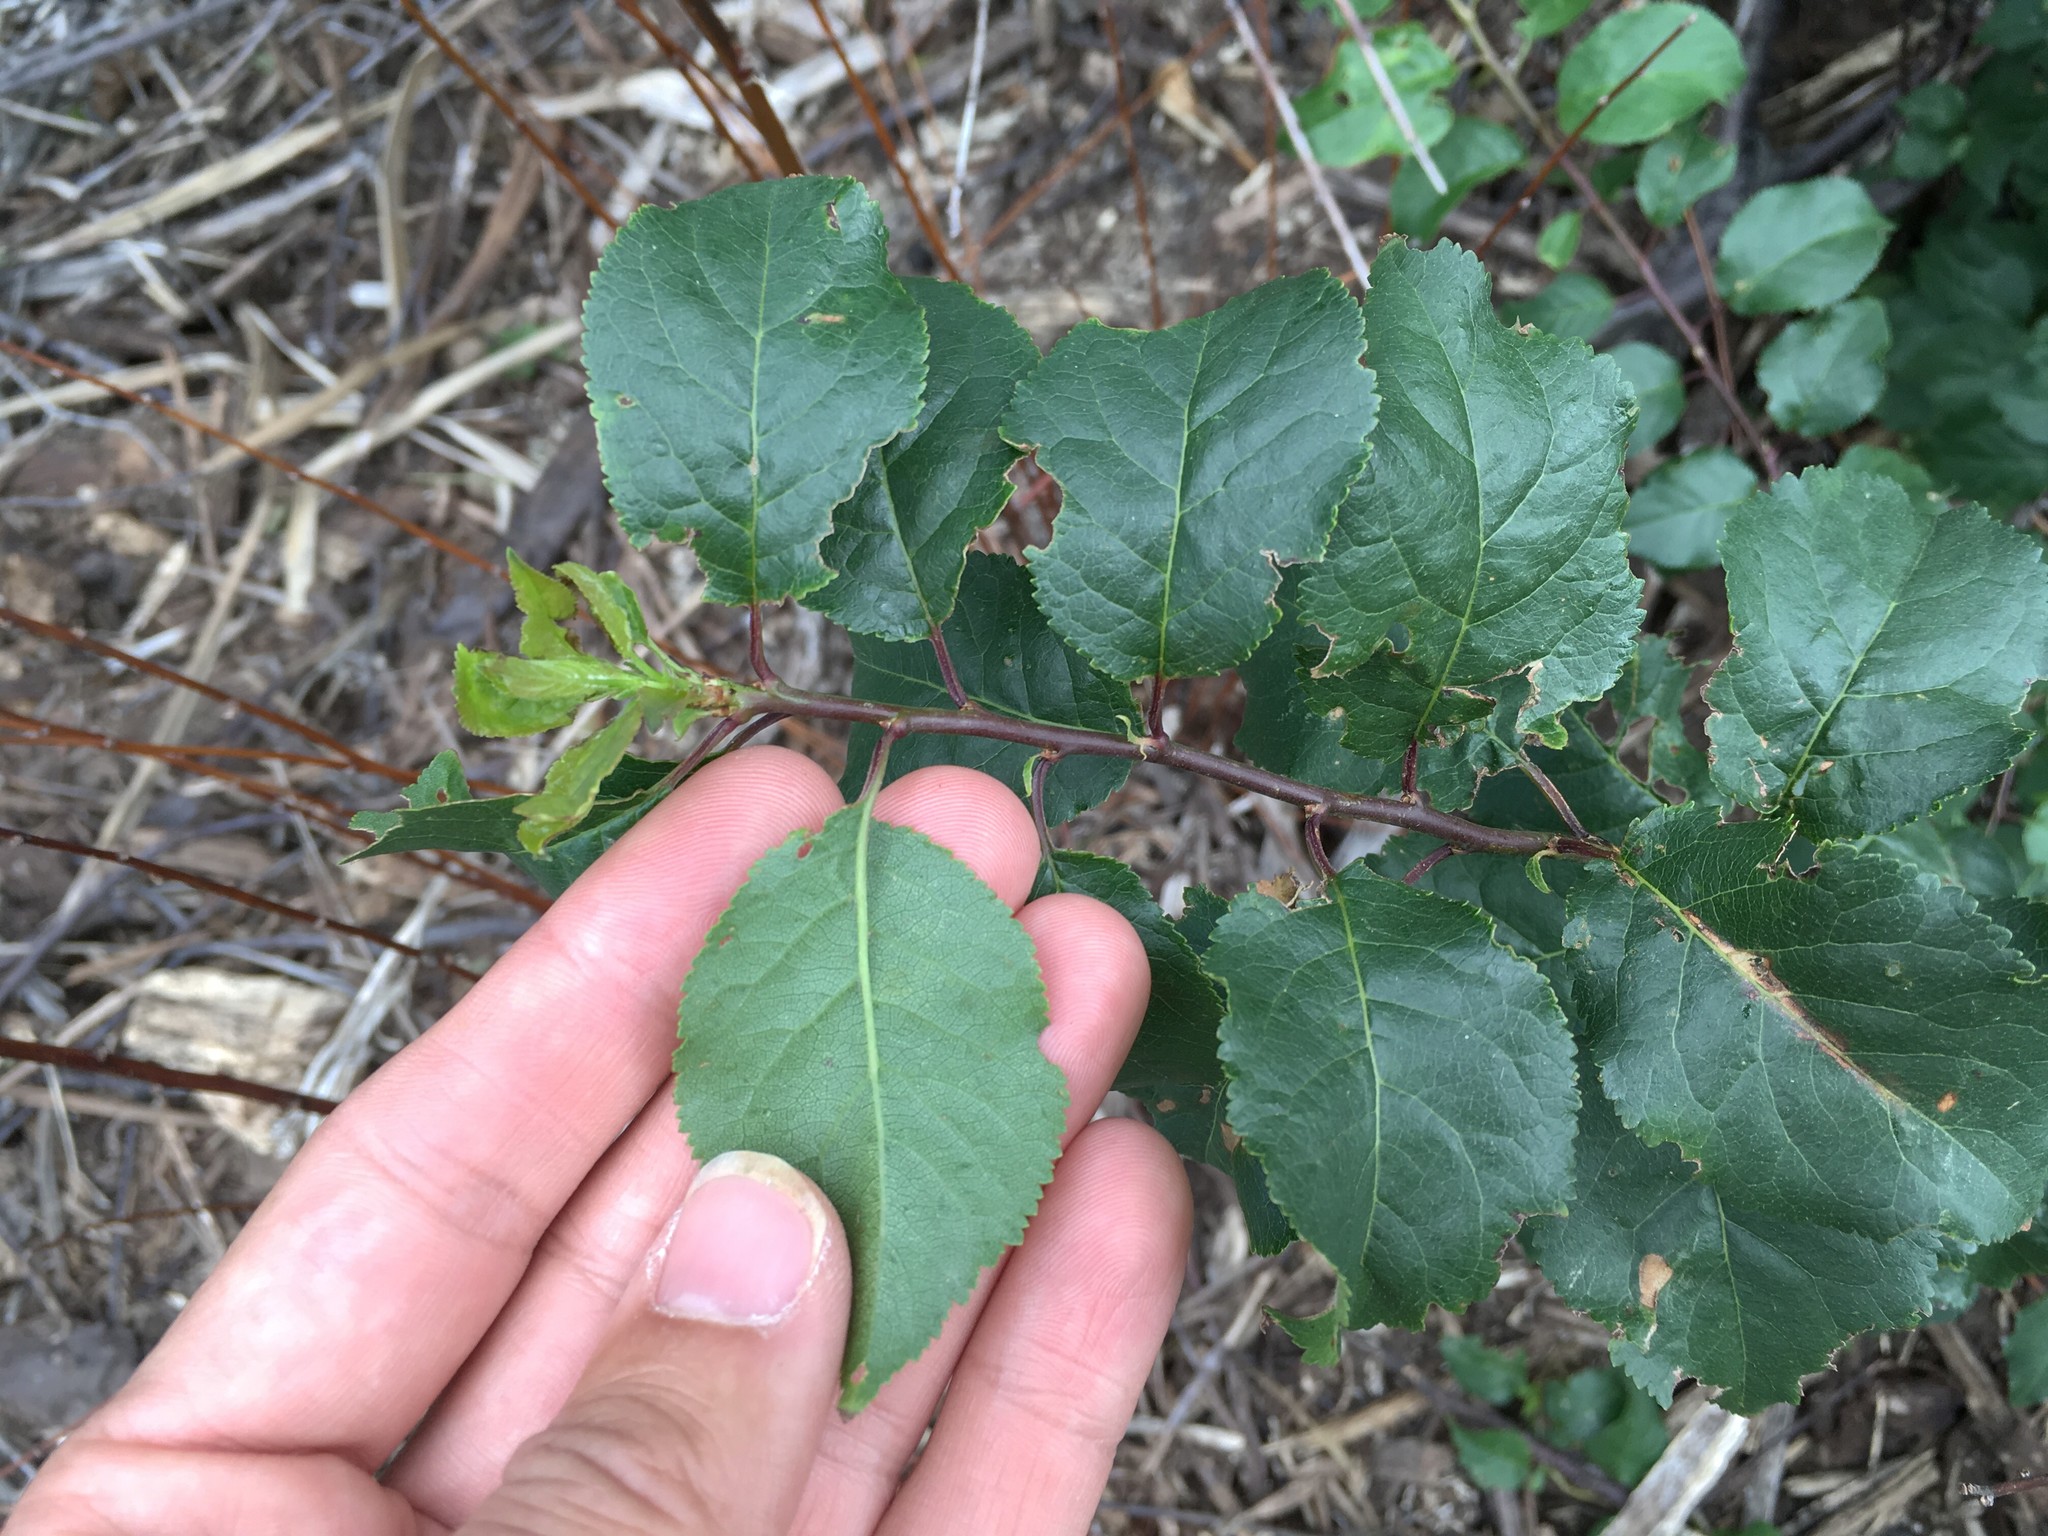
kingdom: Plantae
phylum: Tracheophyta
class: Magnoliopsida
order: Rosales
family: Rosaceae
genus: Prunus
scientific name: Prunus cerasifera
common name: Cherry plum
